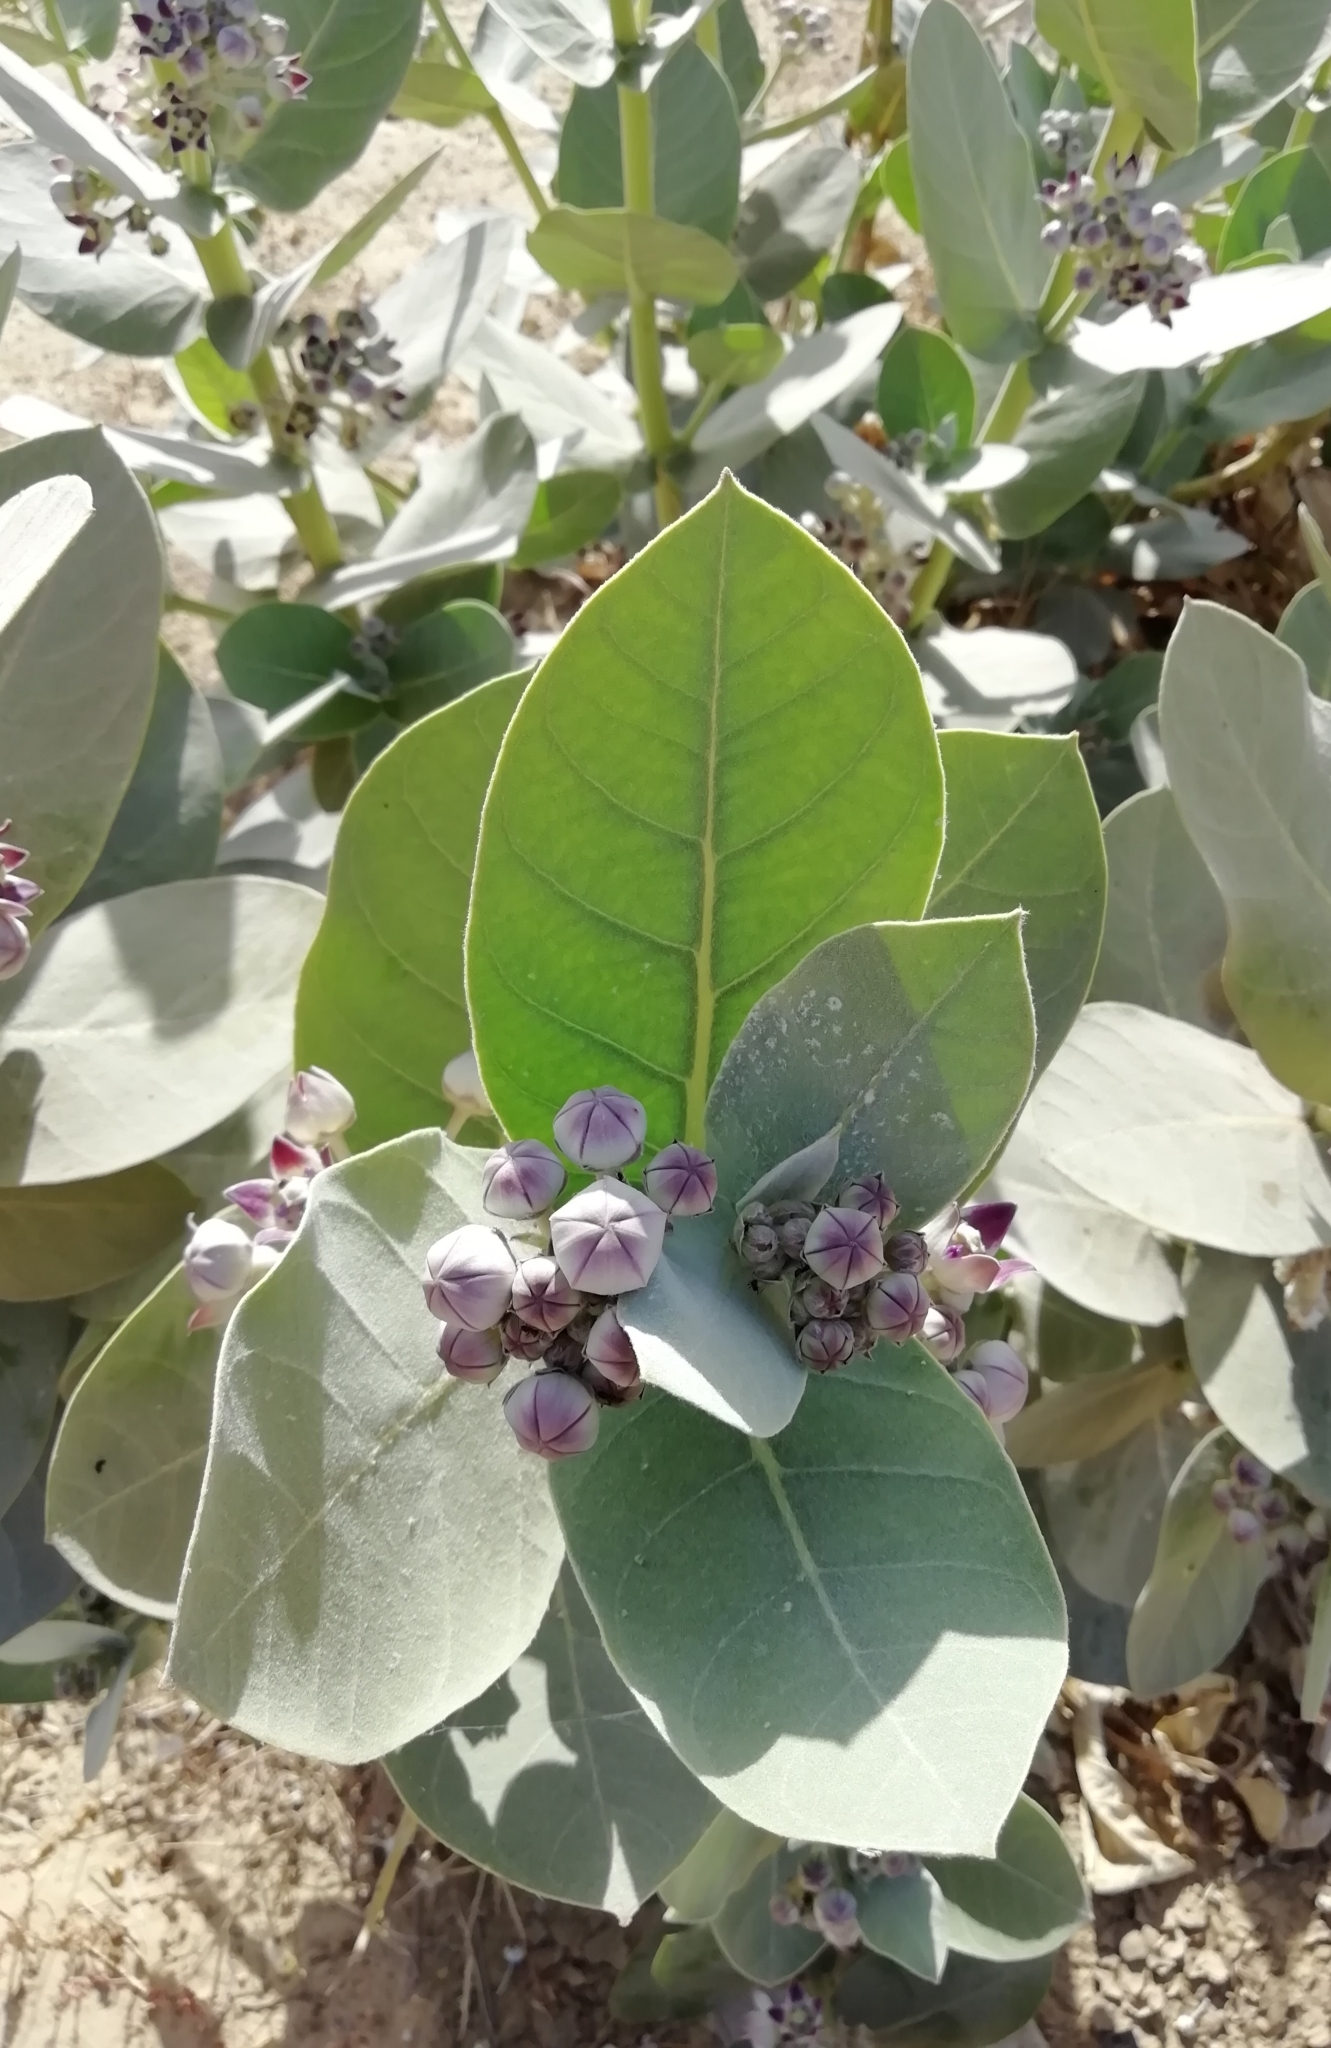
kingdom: Plantae
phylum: Tracheophyta
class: Magnoliopsida
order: Gentianales
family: Apocynaceae
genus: Calotropis
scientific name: Calotropis procera
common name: Roostertree
